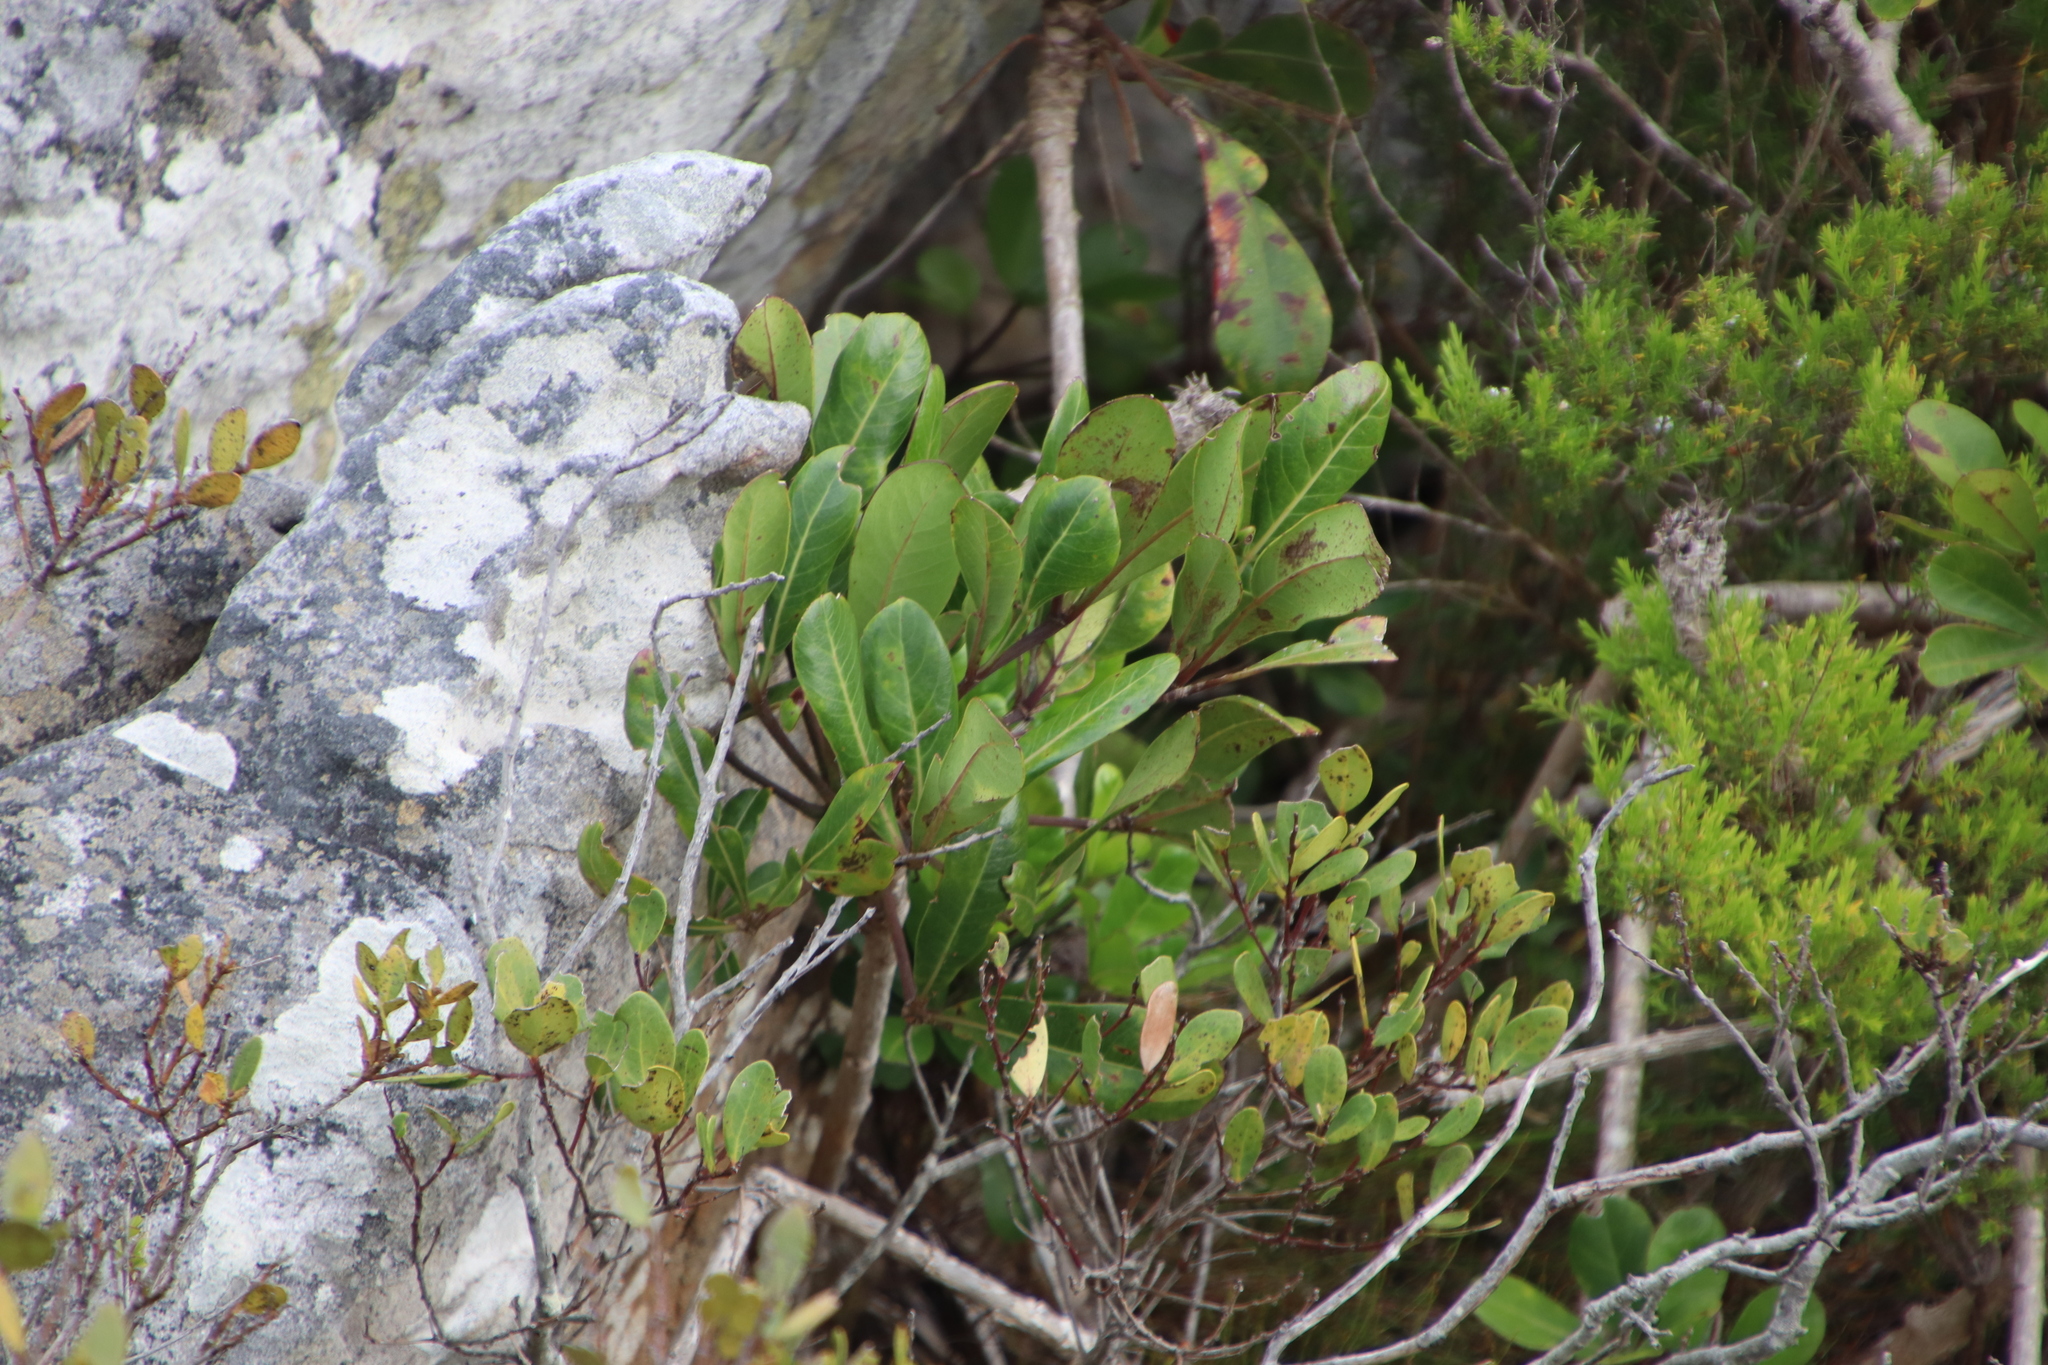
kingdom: Plantae
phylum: Tracheophyta
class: Magnoliopsida
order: Apiales
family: Araliaceae
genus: Cussonia
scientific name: Cussonia thyrsiflora
